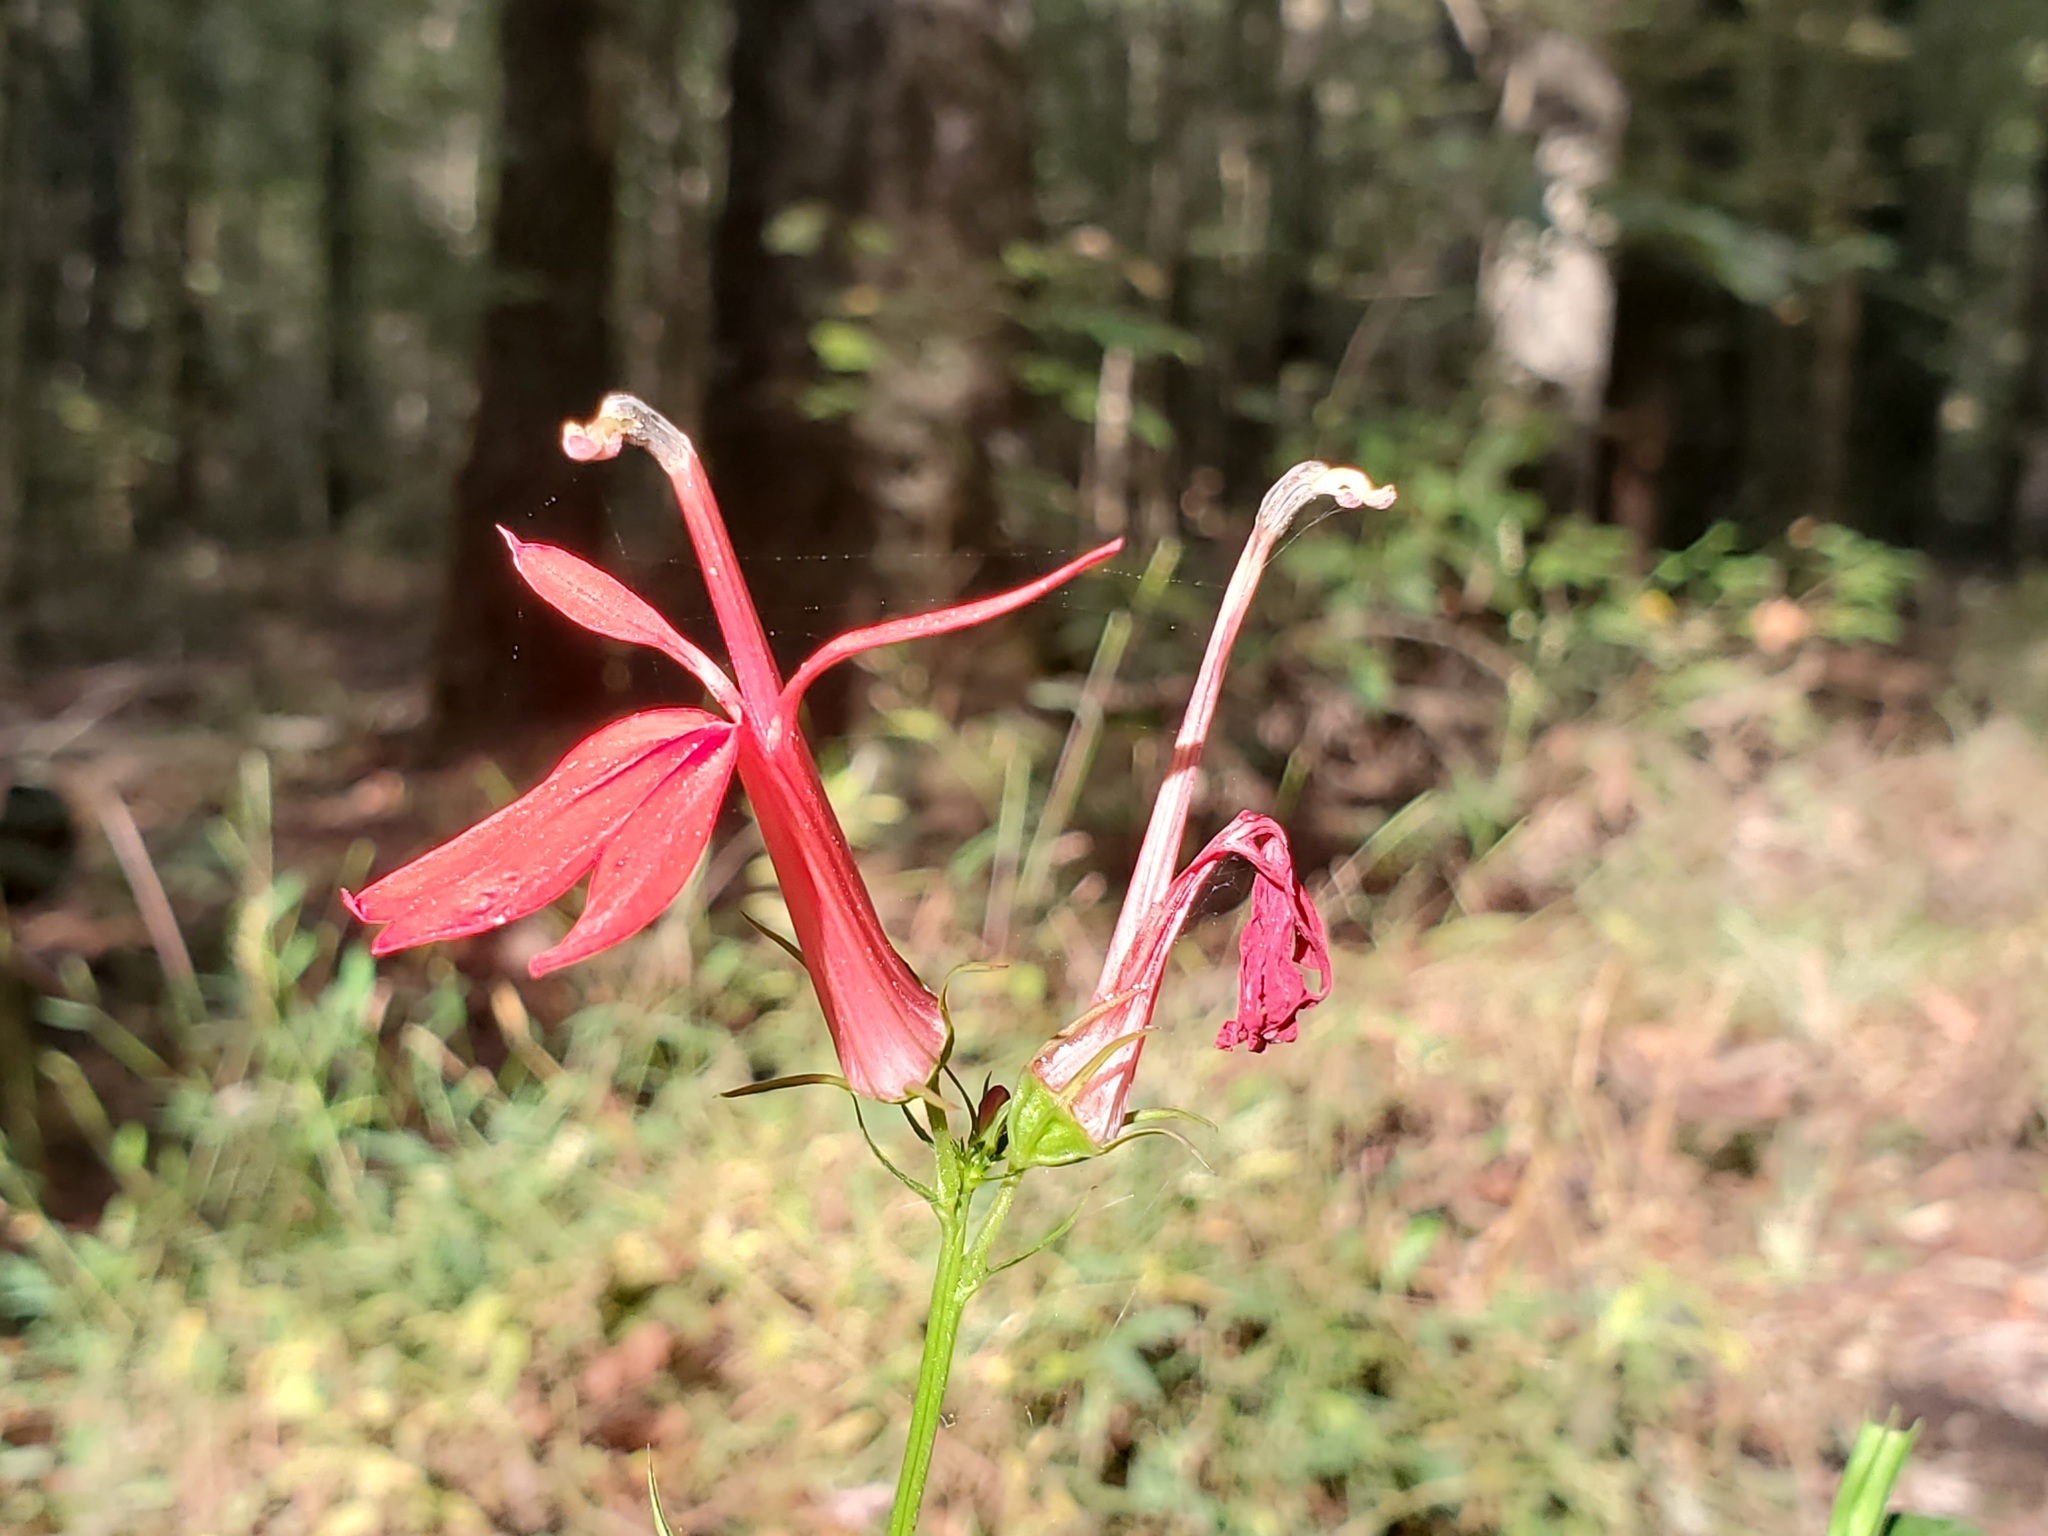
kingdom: Plantae
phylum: Tracheophyta
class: Magnoliopsida
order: Asterales
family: Campanulaceae
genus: Lobelia
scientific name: Lobelia cardinalis
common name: Cardinal flower
